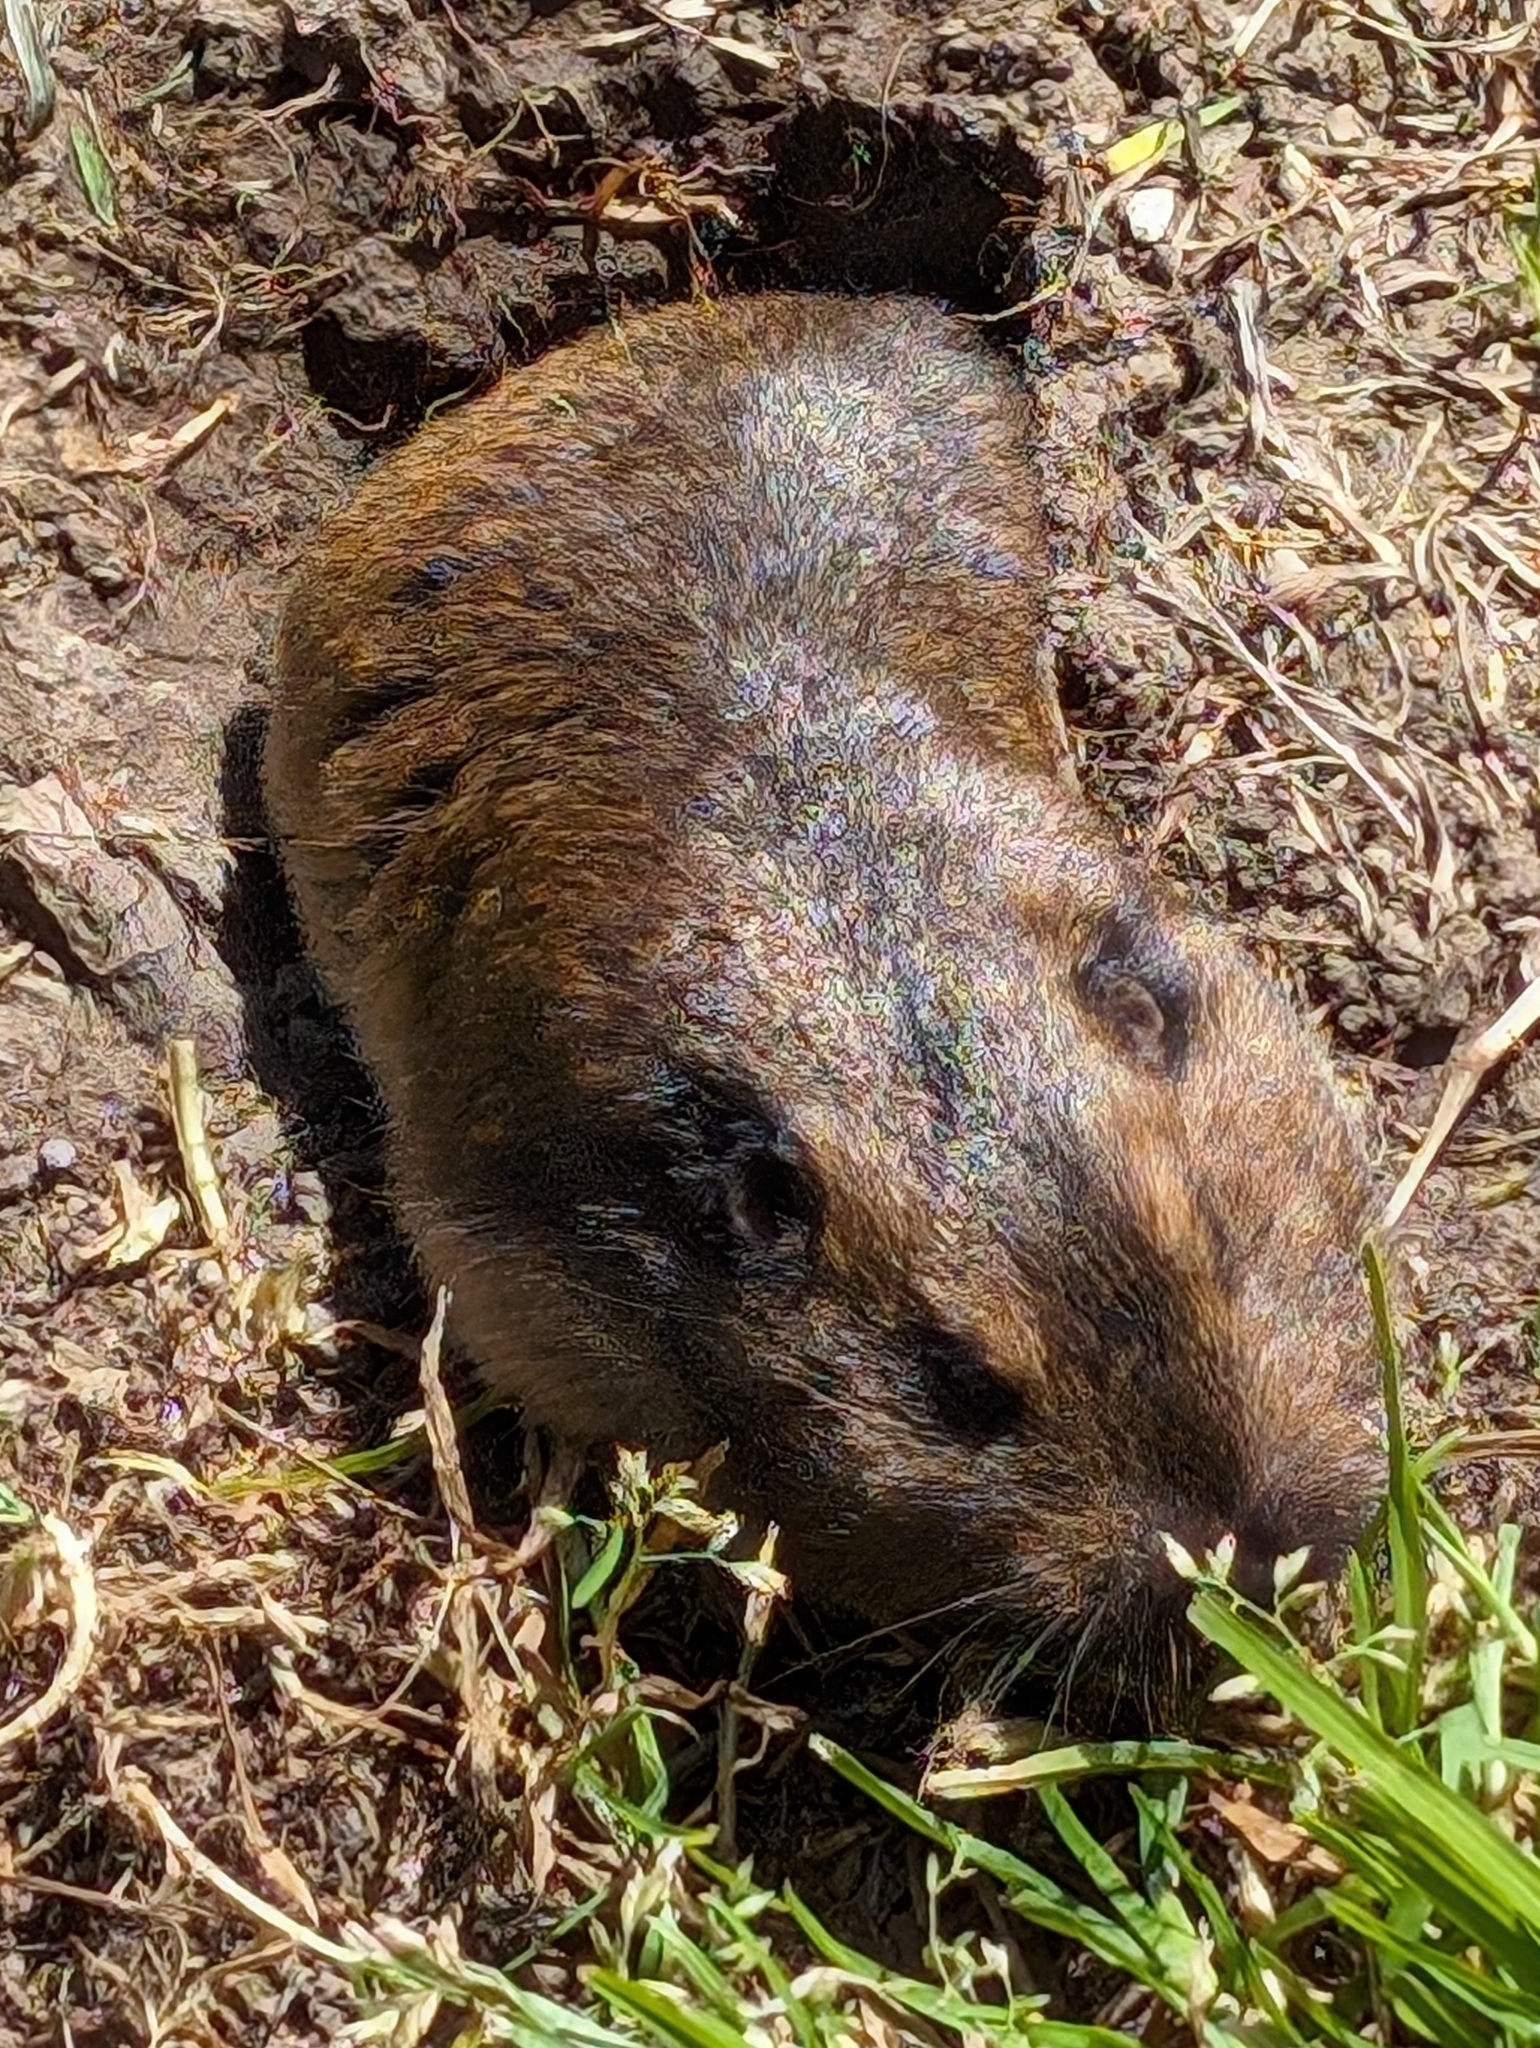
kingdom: Animalia
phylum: Chordata
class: Mammalia
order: Rodentia
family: Geomyidae
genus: Thomomys
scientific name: Thomomys bottae
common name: Botta's pocket gopher
